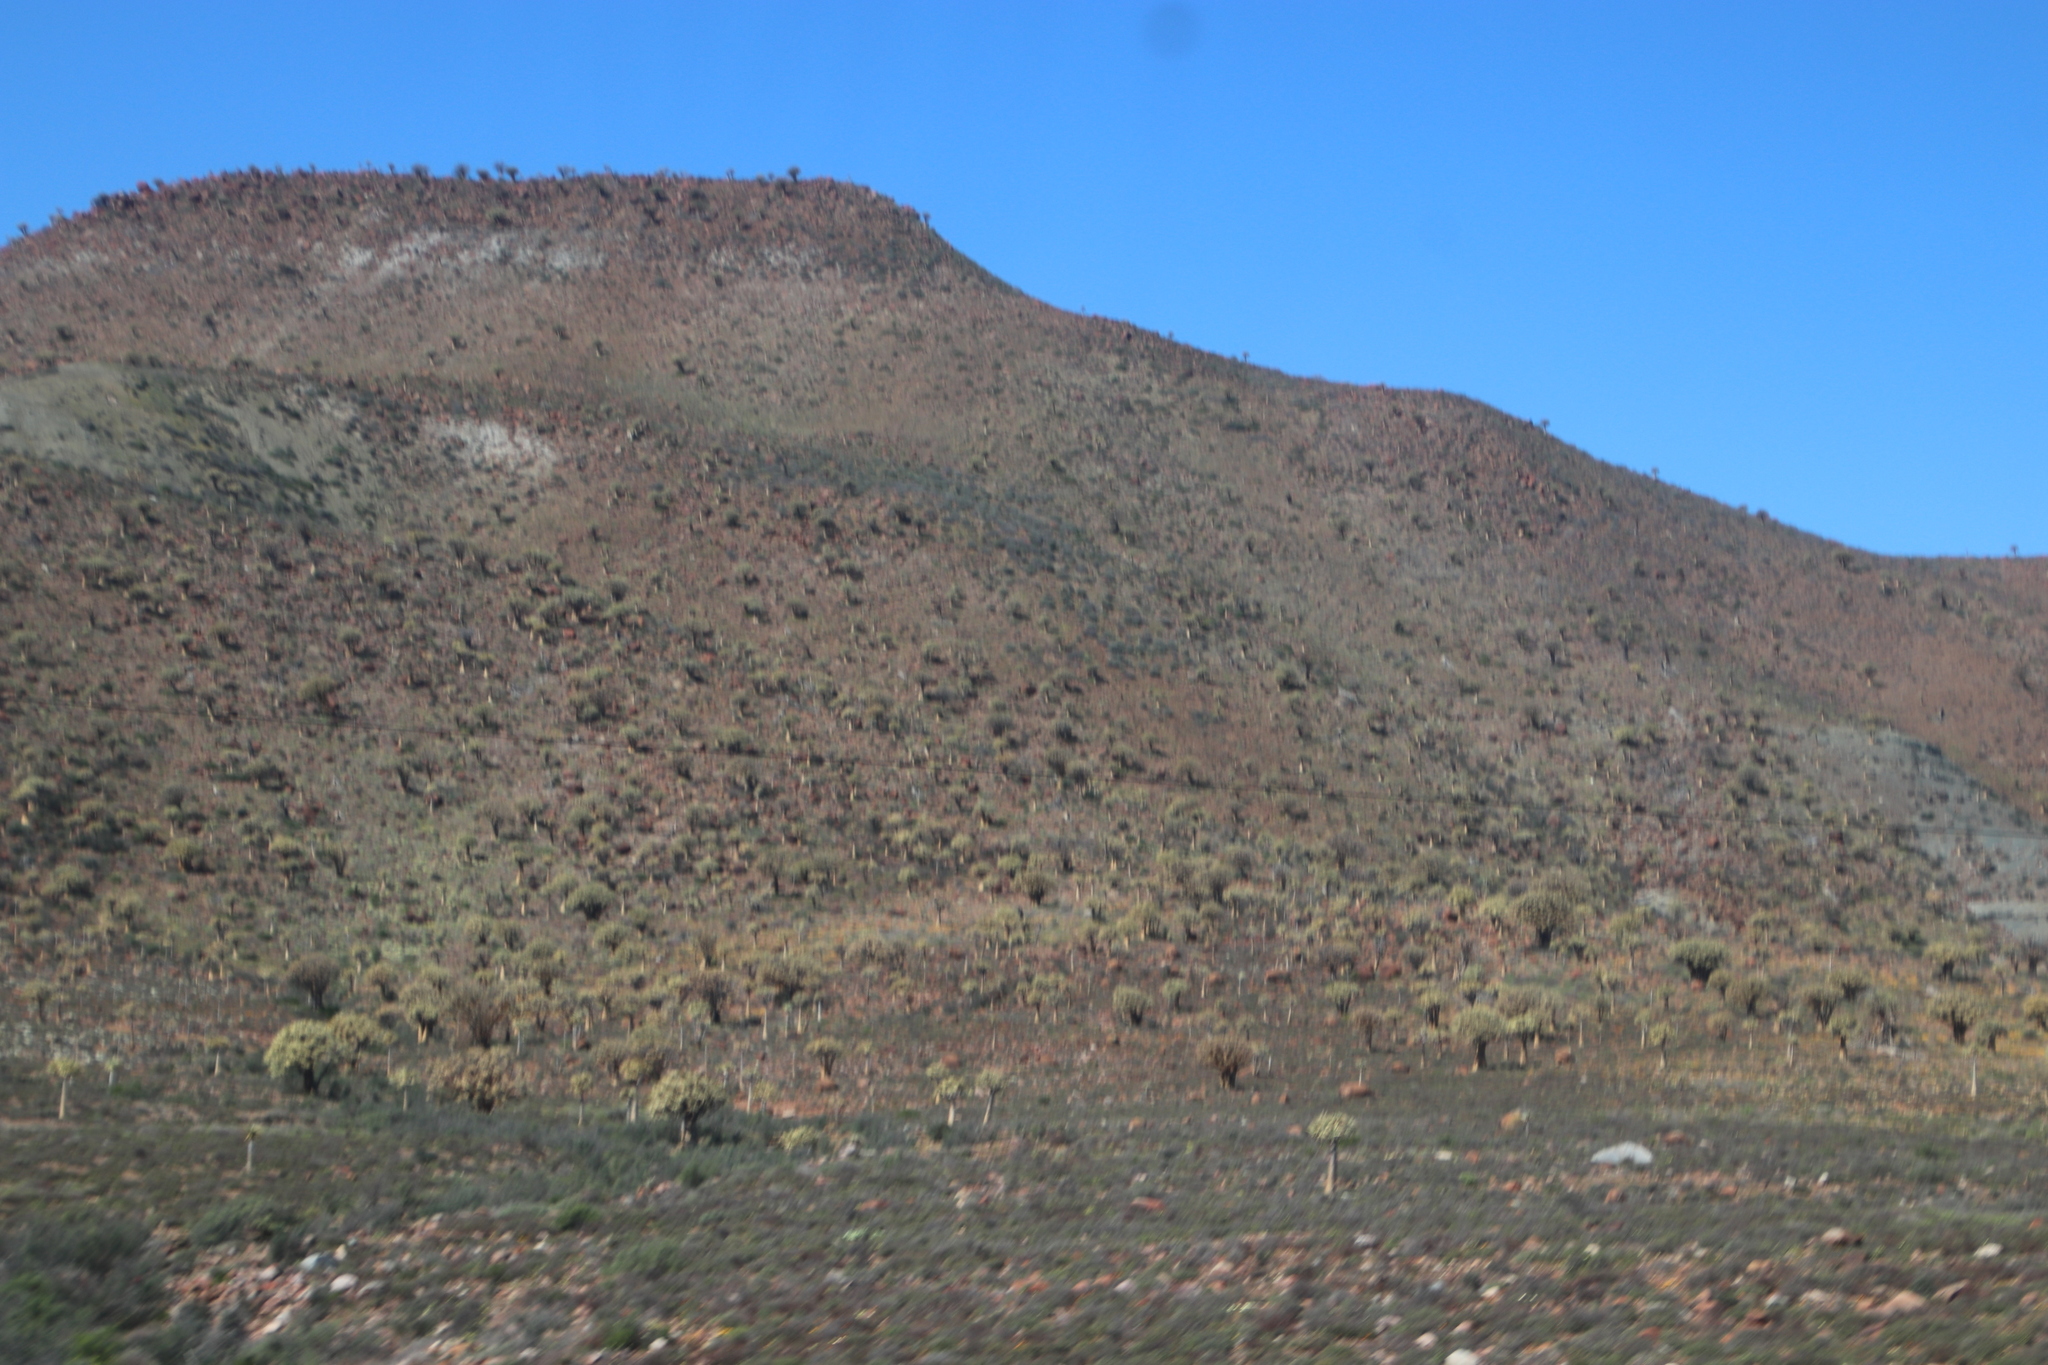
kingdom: Plantae
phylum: Tracheophyta
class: Liliopsida
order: Asparagales
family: Asphodelaceae
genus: Aloidendron
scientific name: Aloidendron dichotomum
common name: Quiver tree
